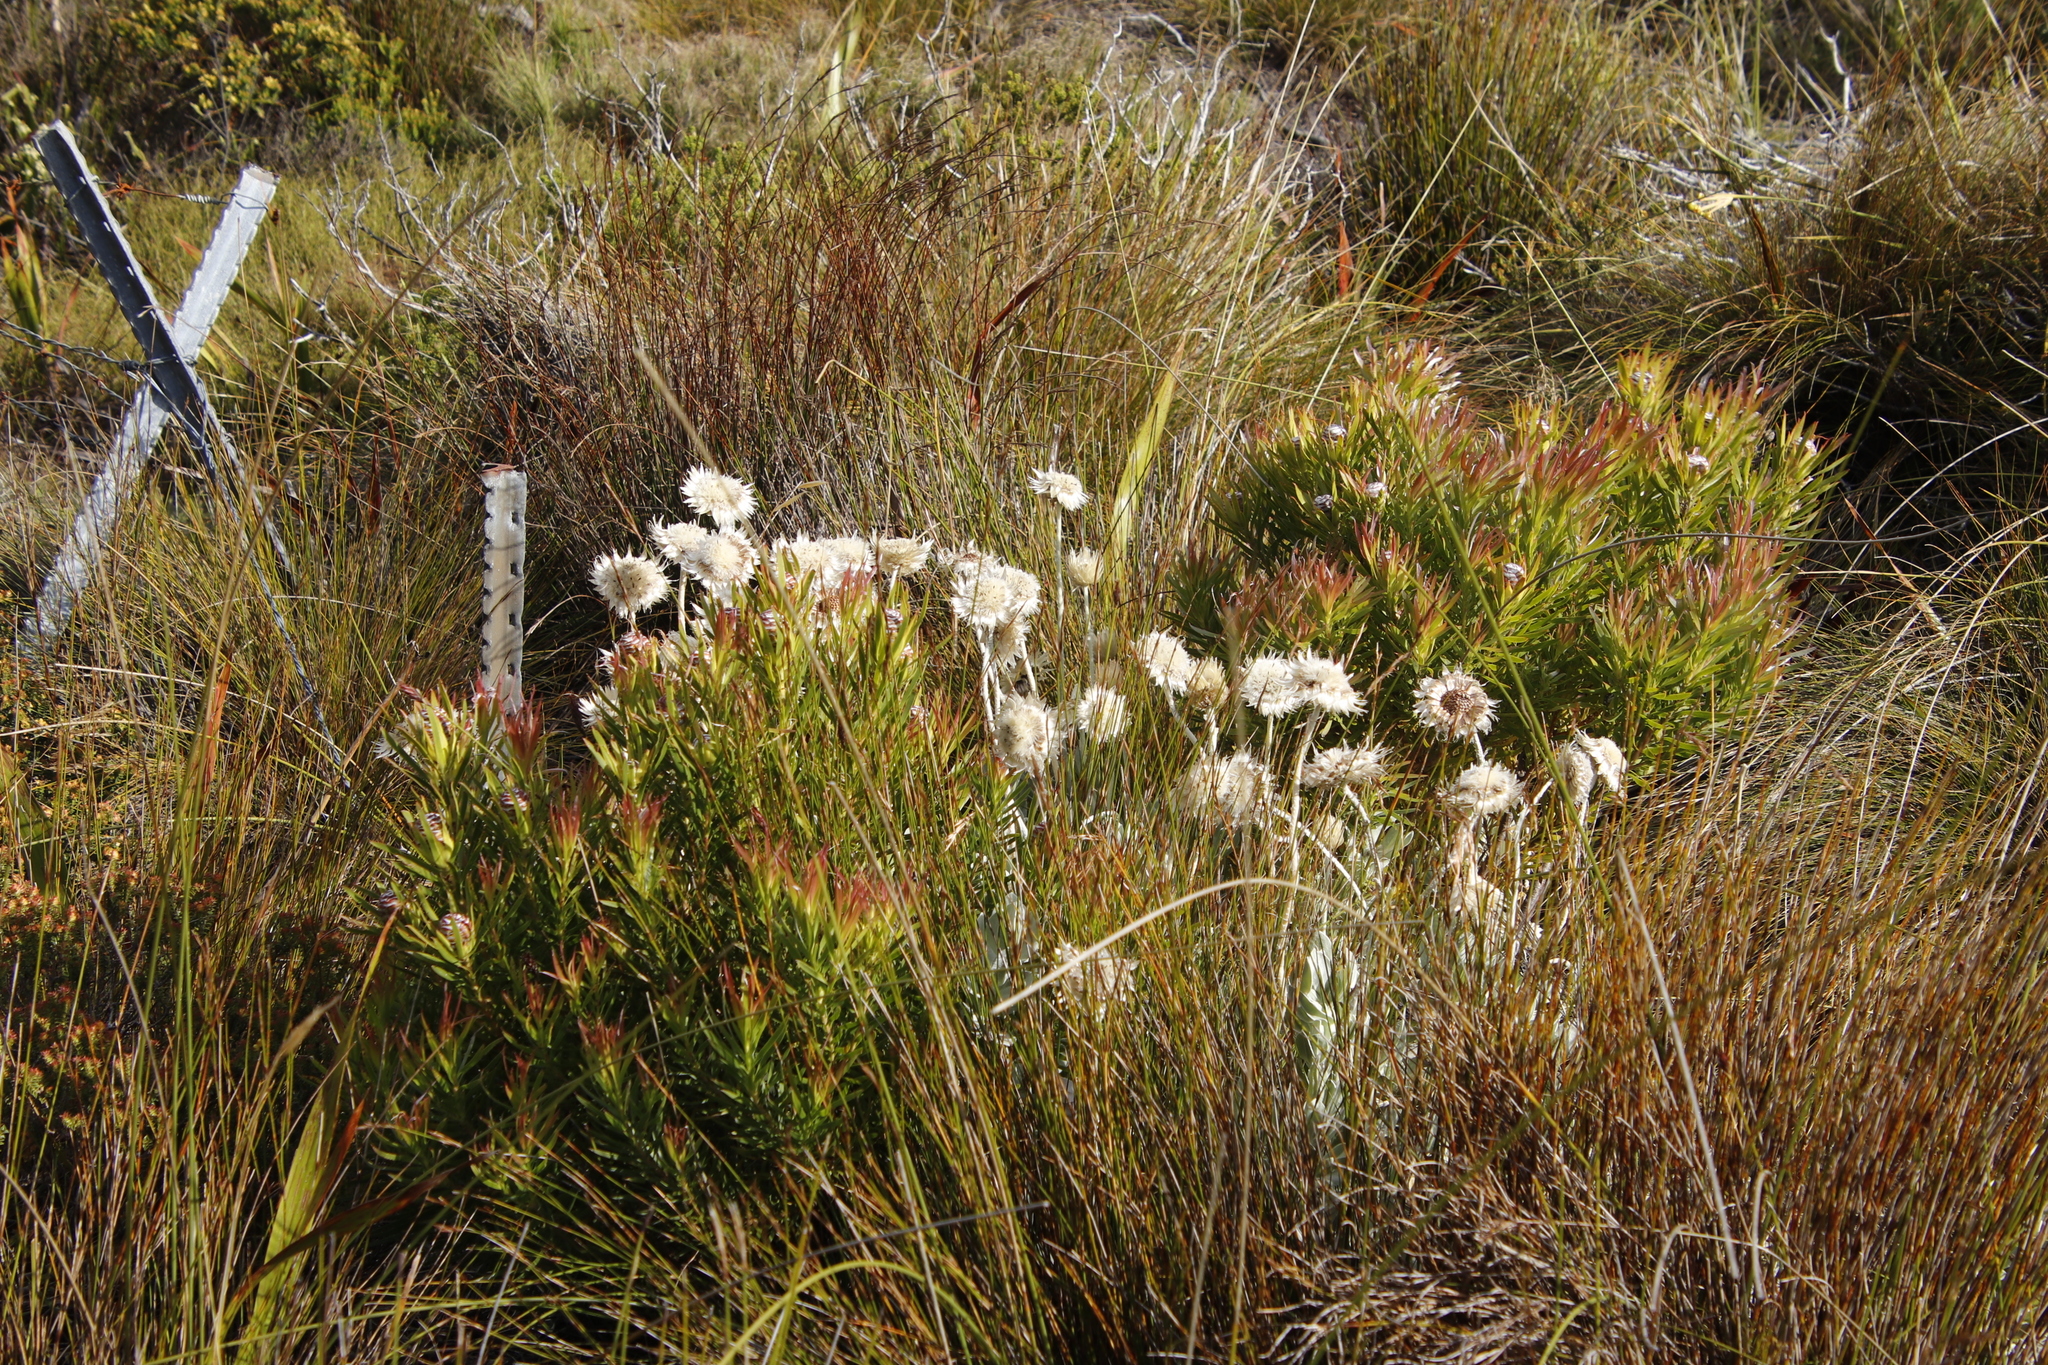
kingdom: Plantae
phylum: Tracheophyta
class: Magnoliopsida
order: Asterales
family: Asteraceae
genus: Syncarpha
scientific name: Syncarpha speciosissima
